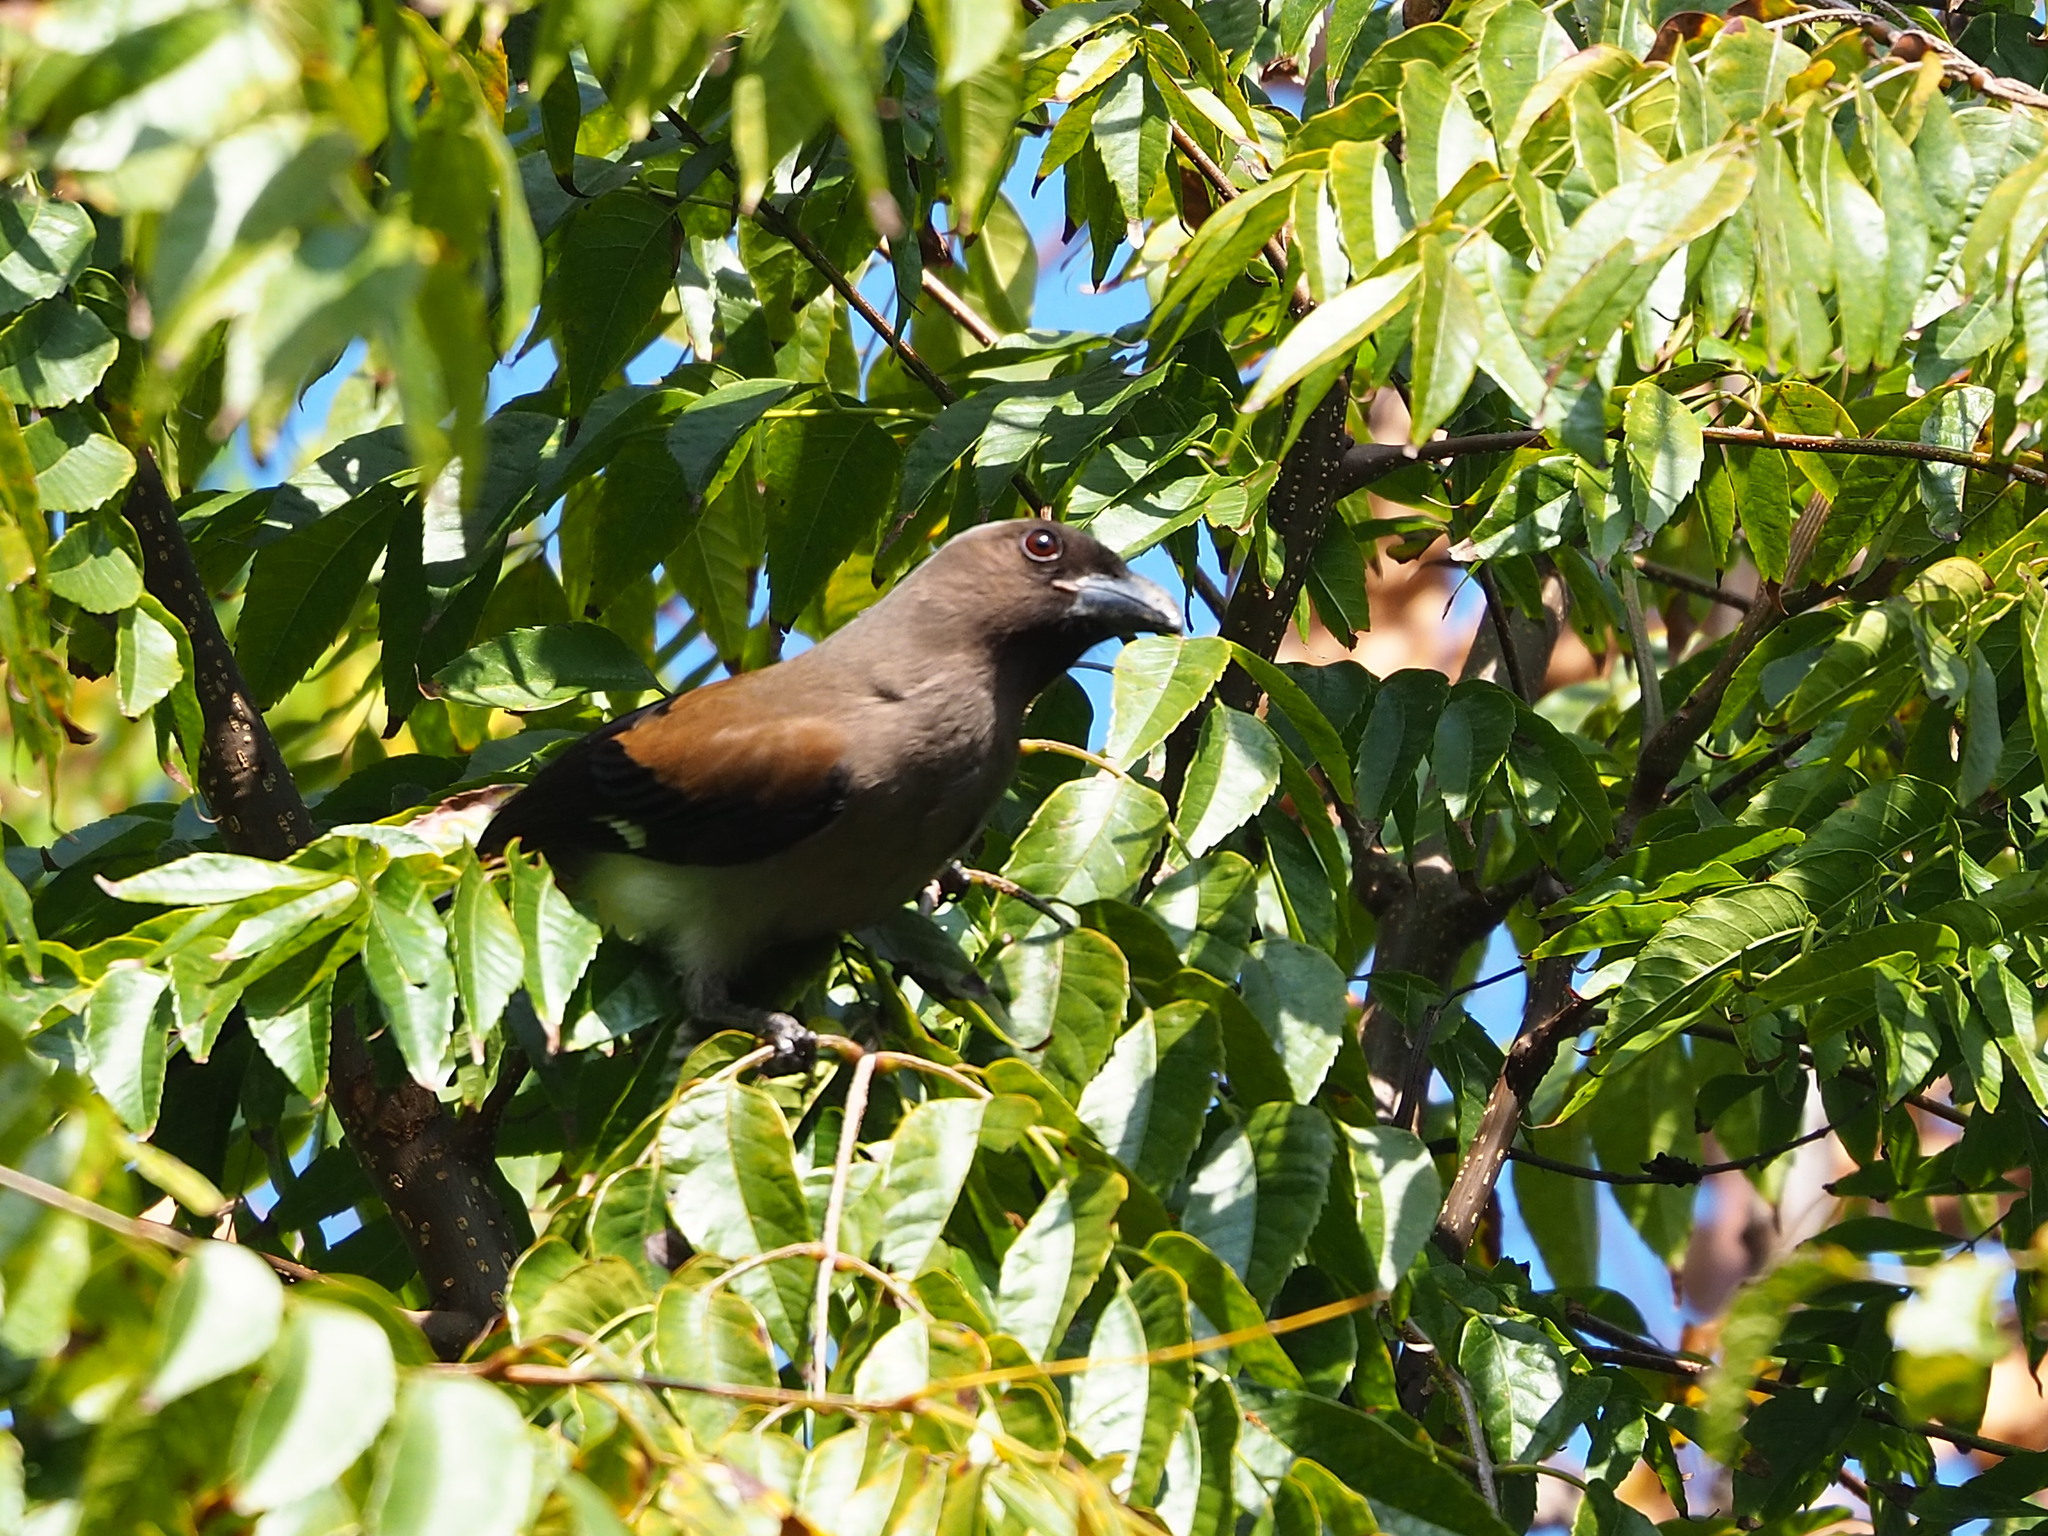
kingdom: Animalia
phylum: Chordata
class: Aves
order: Passeriformes
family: Corvidae
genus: Dendrocitta
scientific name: Dendrocitta formosae
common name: Grey treepie
